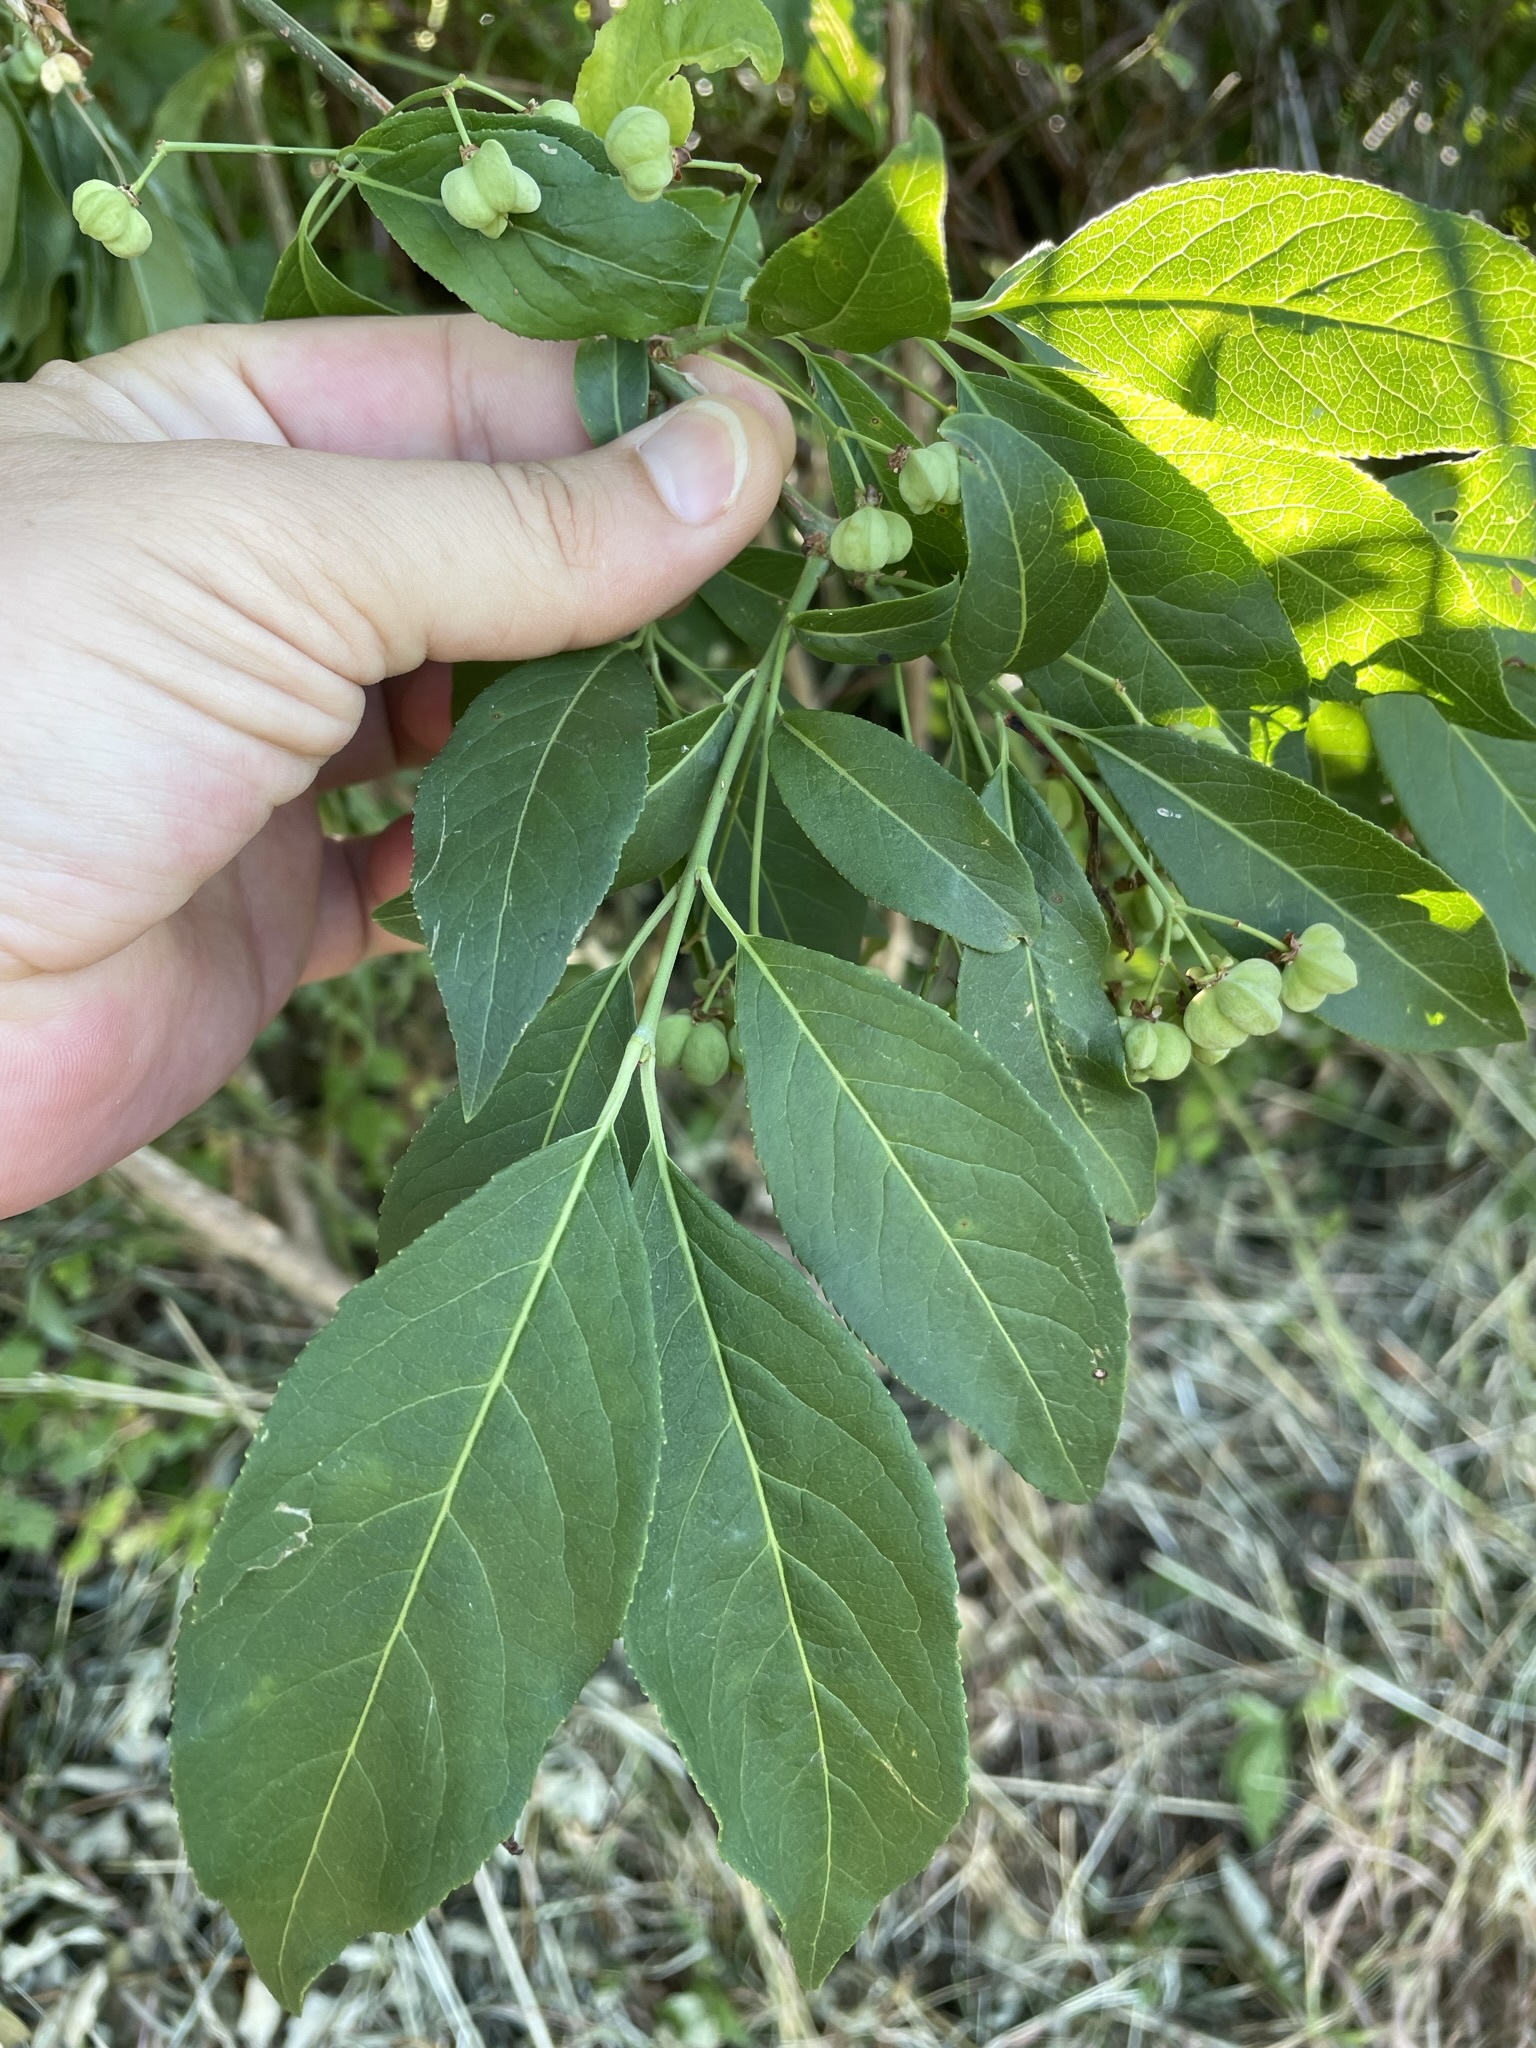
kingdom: Plantae
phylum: Tracheophyta
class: Magnoliopsida
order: Celastrales
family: Celastraceae
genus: Euonymus
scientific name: Euonymus europaeus
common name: Spindle
